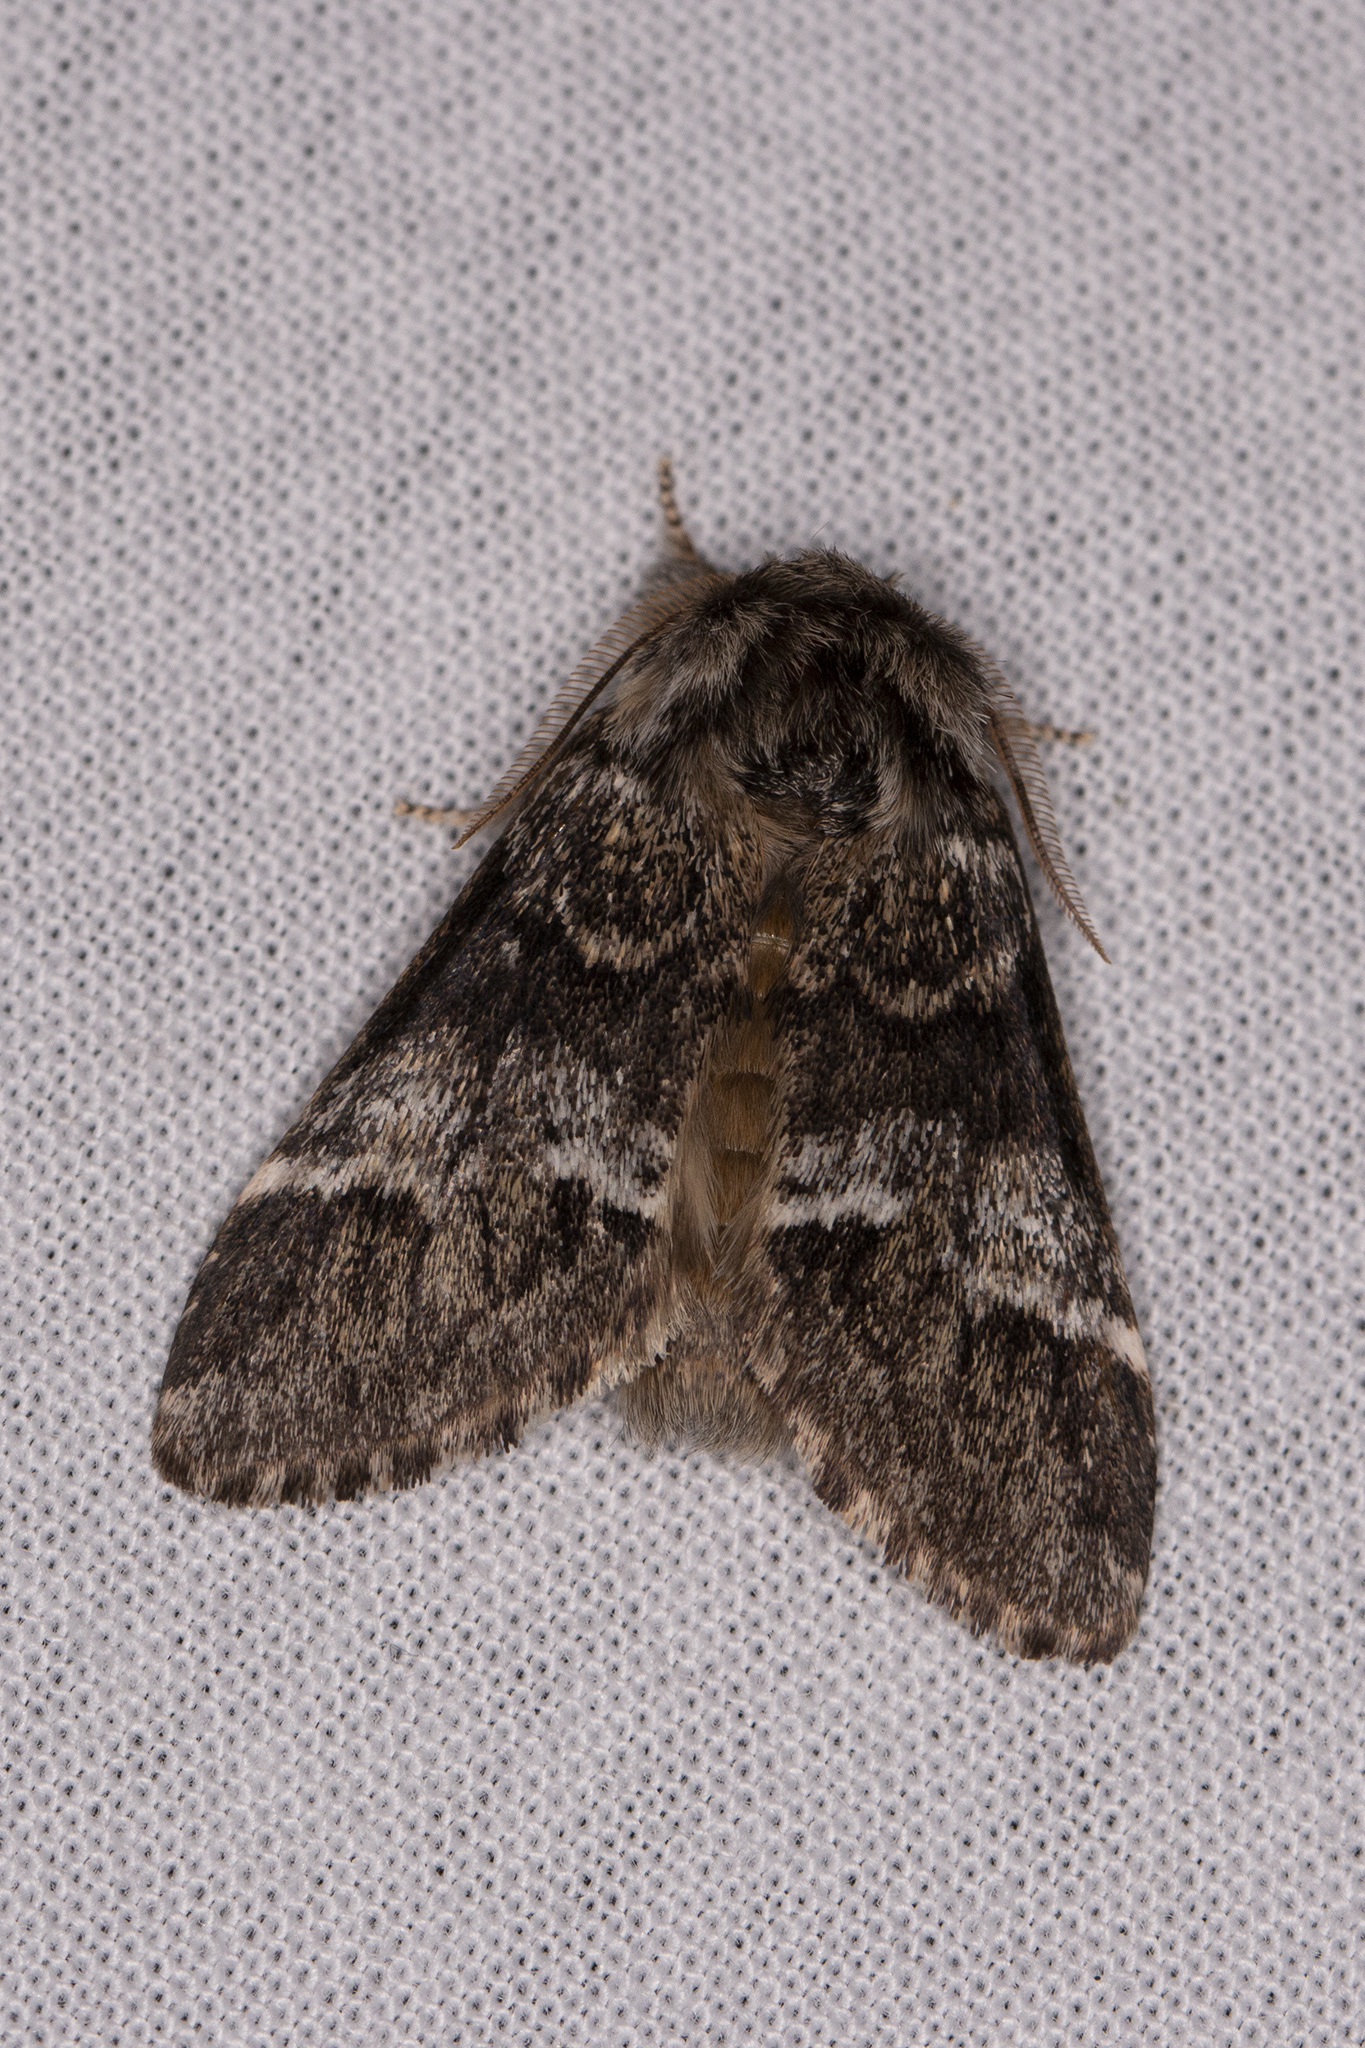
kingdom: Animalia
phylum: Arthropoda
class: Insecta
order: Lepidoptera
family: Notodontidae
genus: Drymonia
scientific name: Drymonia dodonaea
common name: Marbled brown
